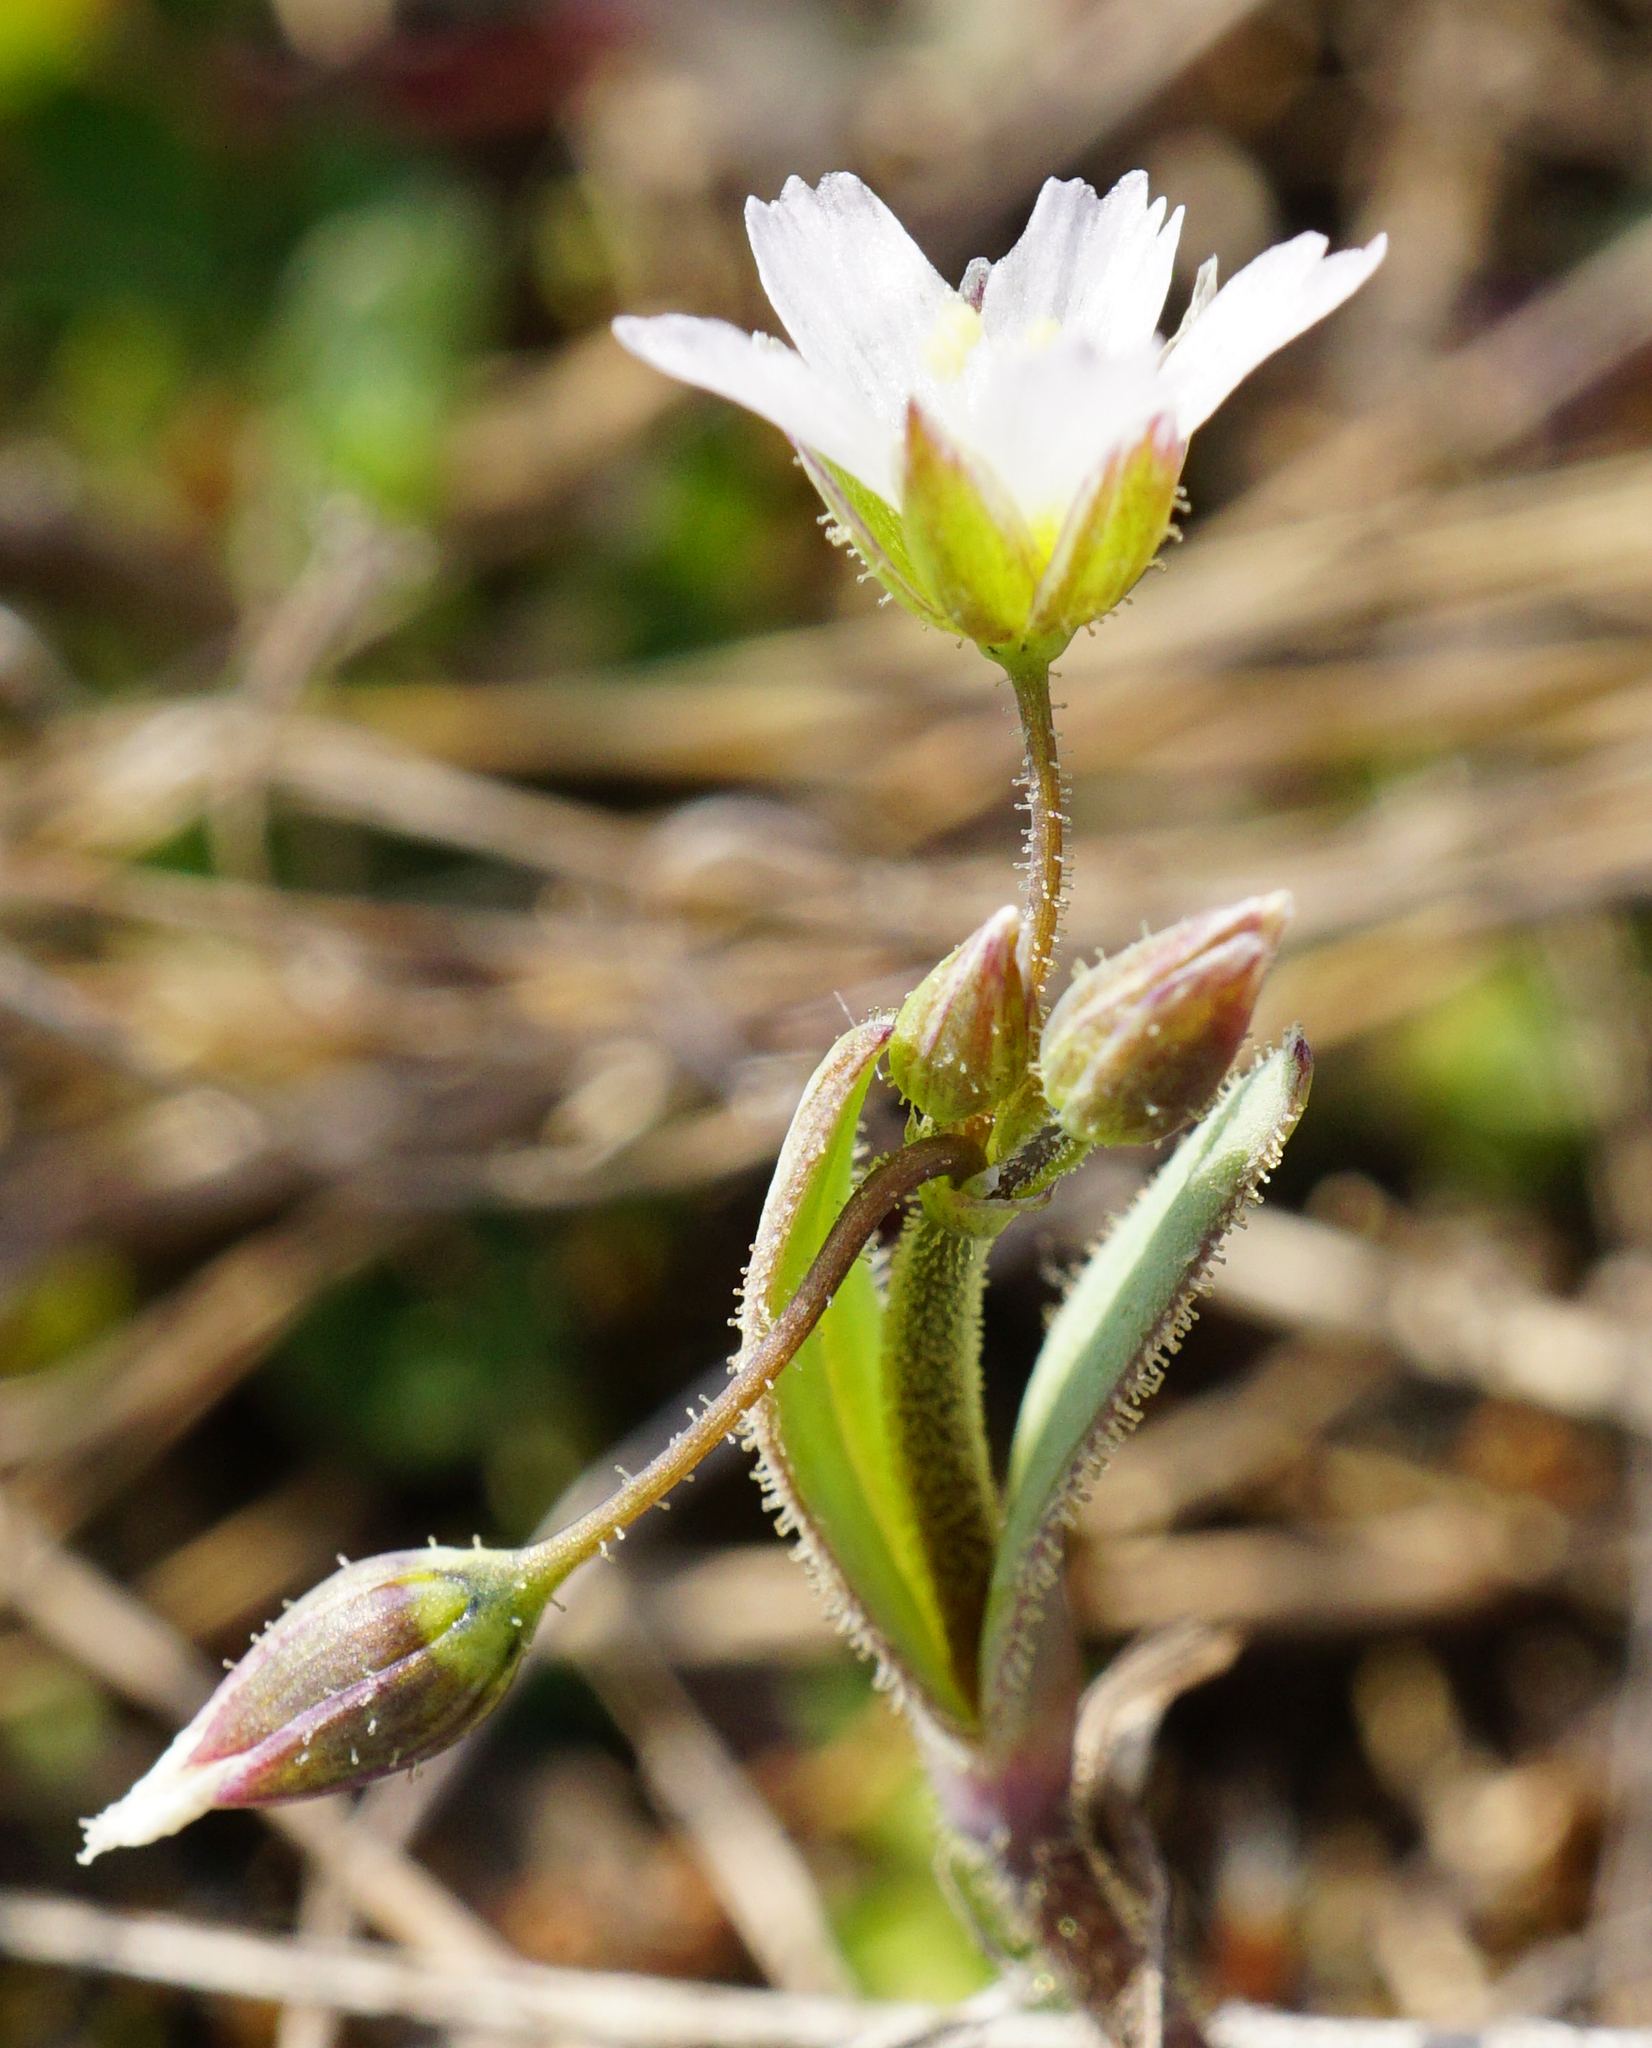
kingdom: Plantae
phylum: Tracheophyta
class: Magnoliopsida
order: Caryophyllales
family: Caryophyllaceae
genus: Holosteum
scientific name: Holosteum umbellatum
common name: Jagged chickweed
